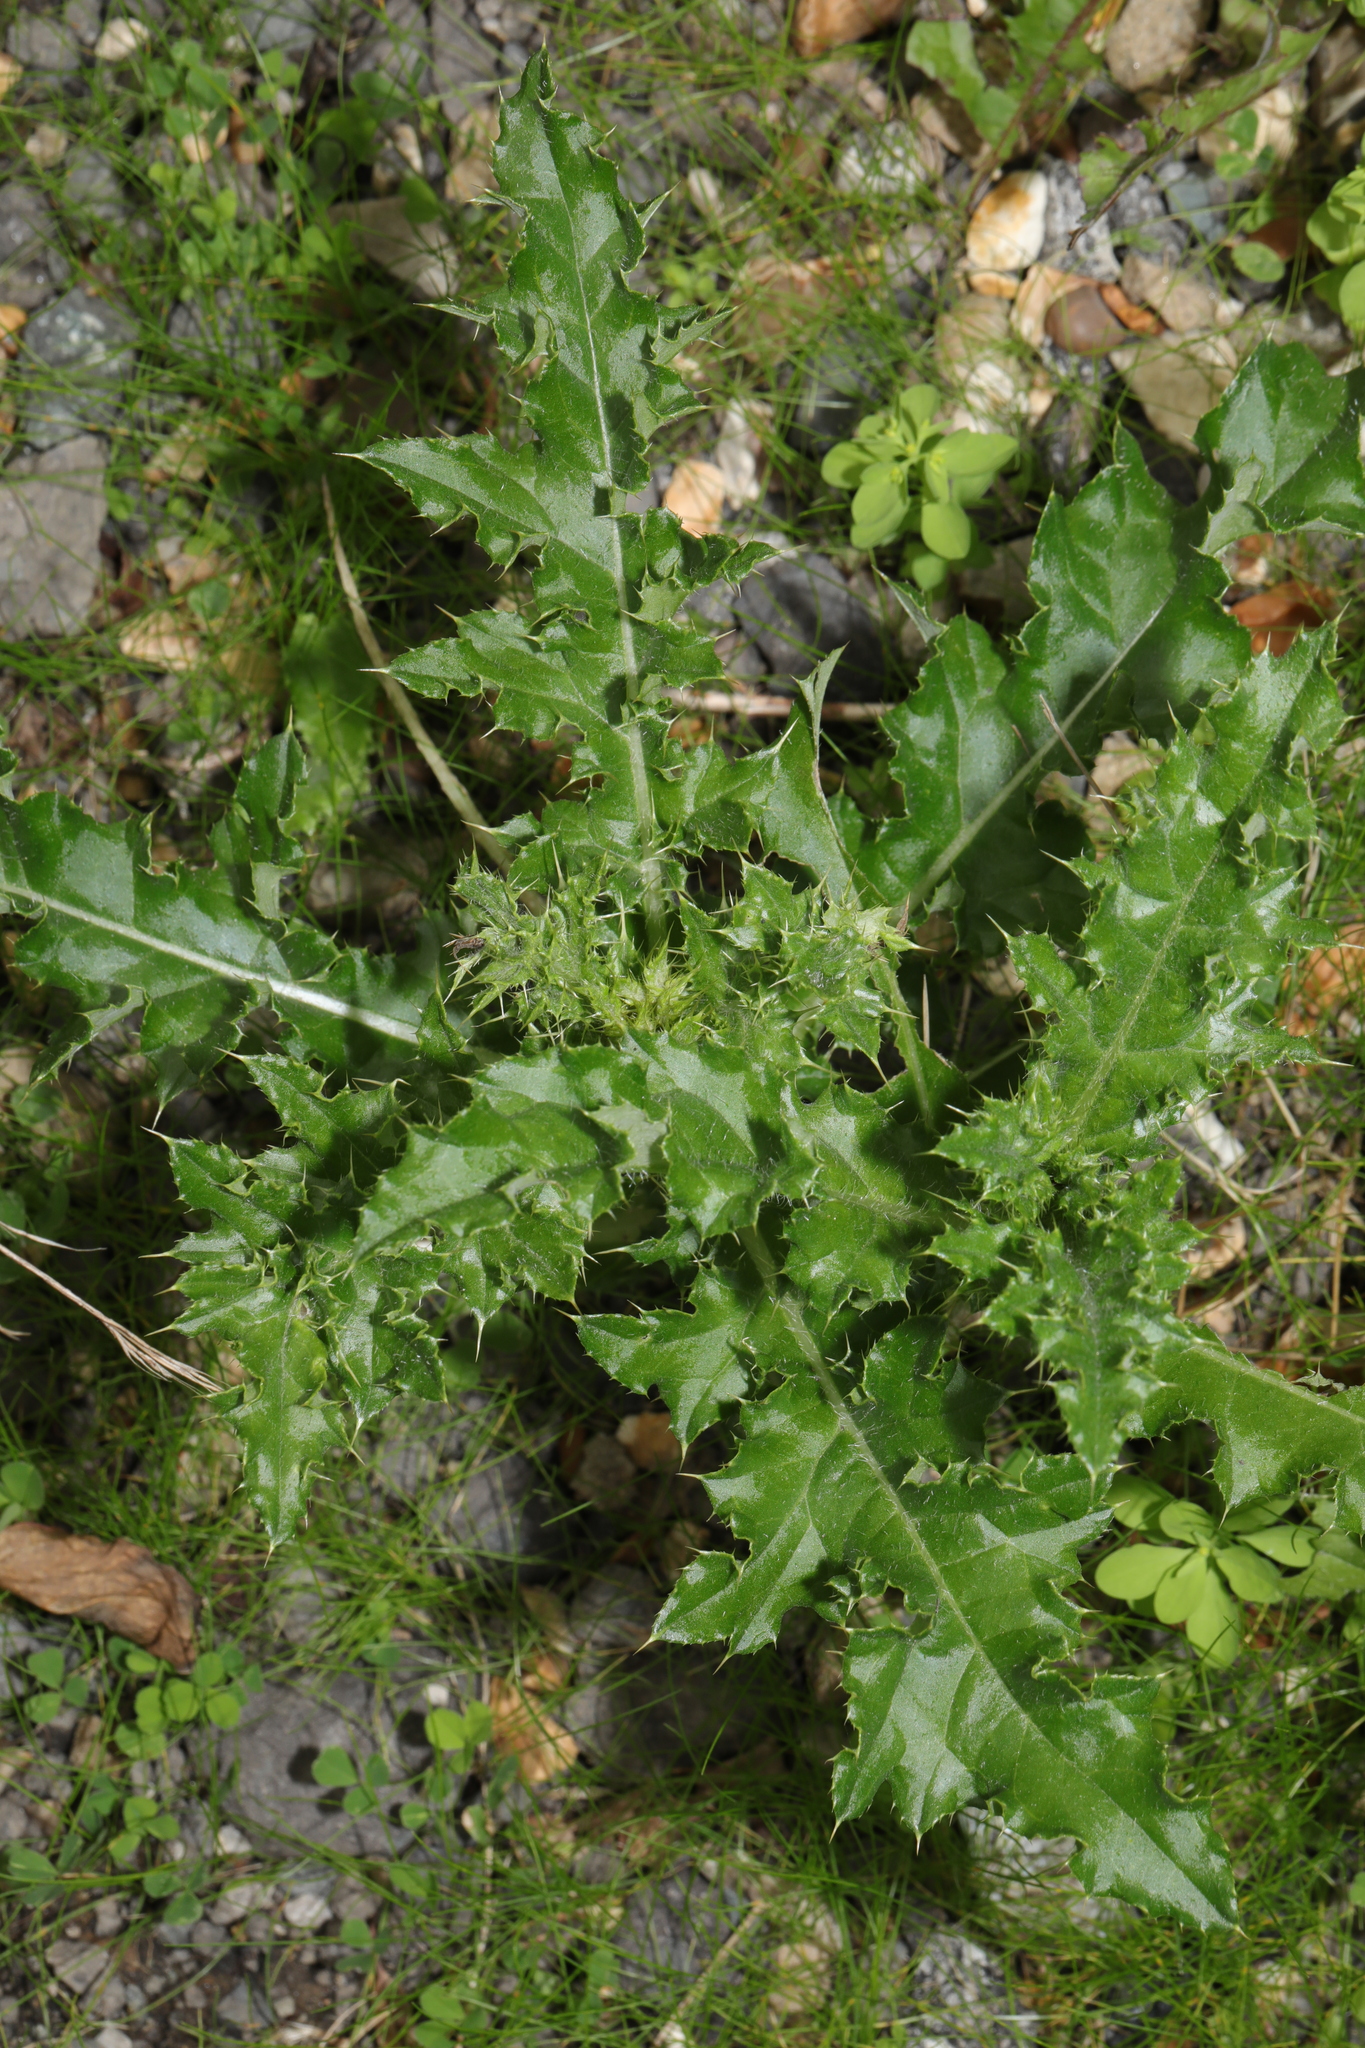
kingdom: Plantae
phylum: Tracheophyta
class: Magnoliopsida
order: Asterales
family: Asteraceae
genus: Cirsium
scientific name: Cirsium arvense
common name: Creeping thistle
